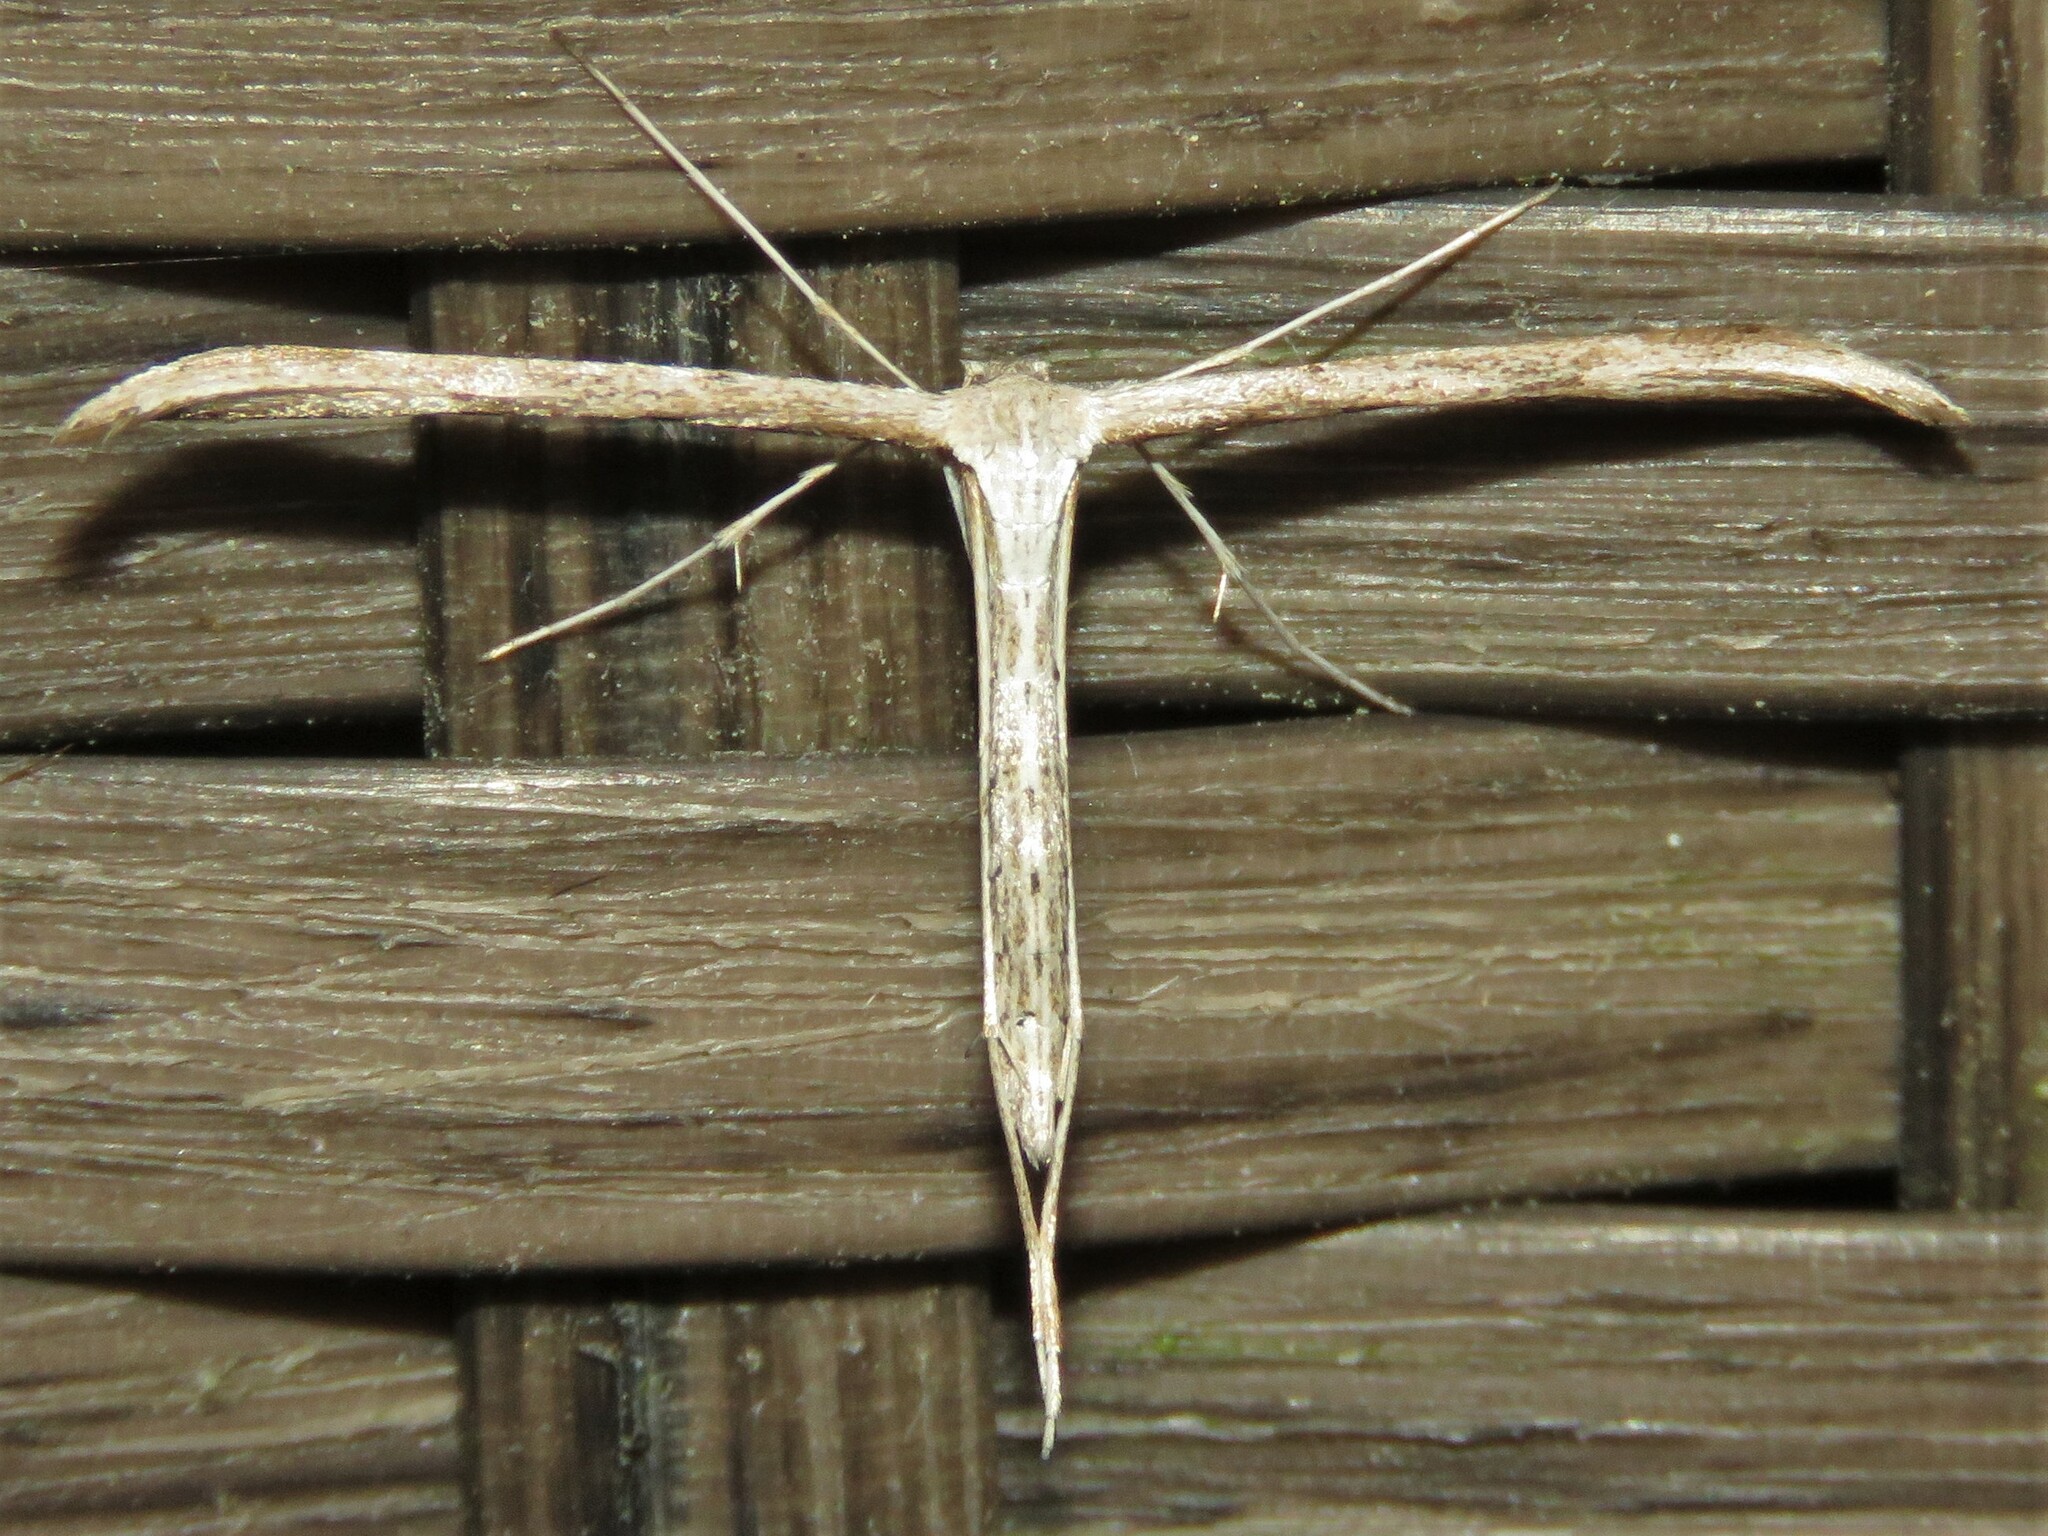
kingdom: Animalia
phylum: Arthropoda
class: Insecta
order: Lepidoptera
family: Pterophoridae
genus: Emmelina
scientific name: Emmelina monodactyla
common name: Common plume
